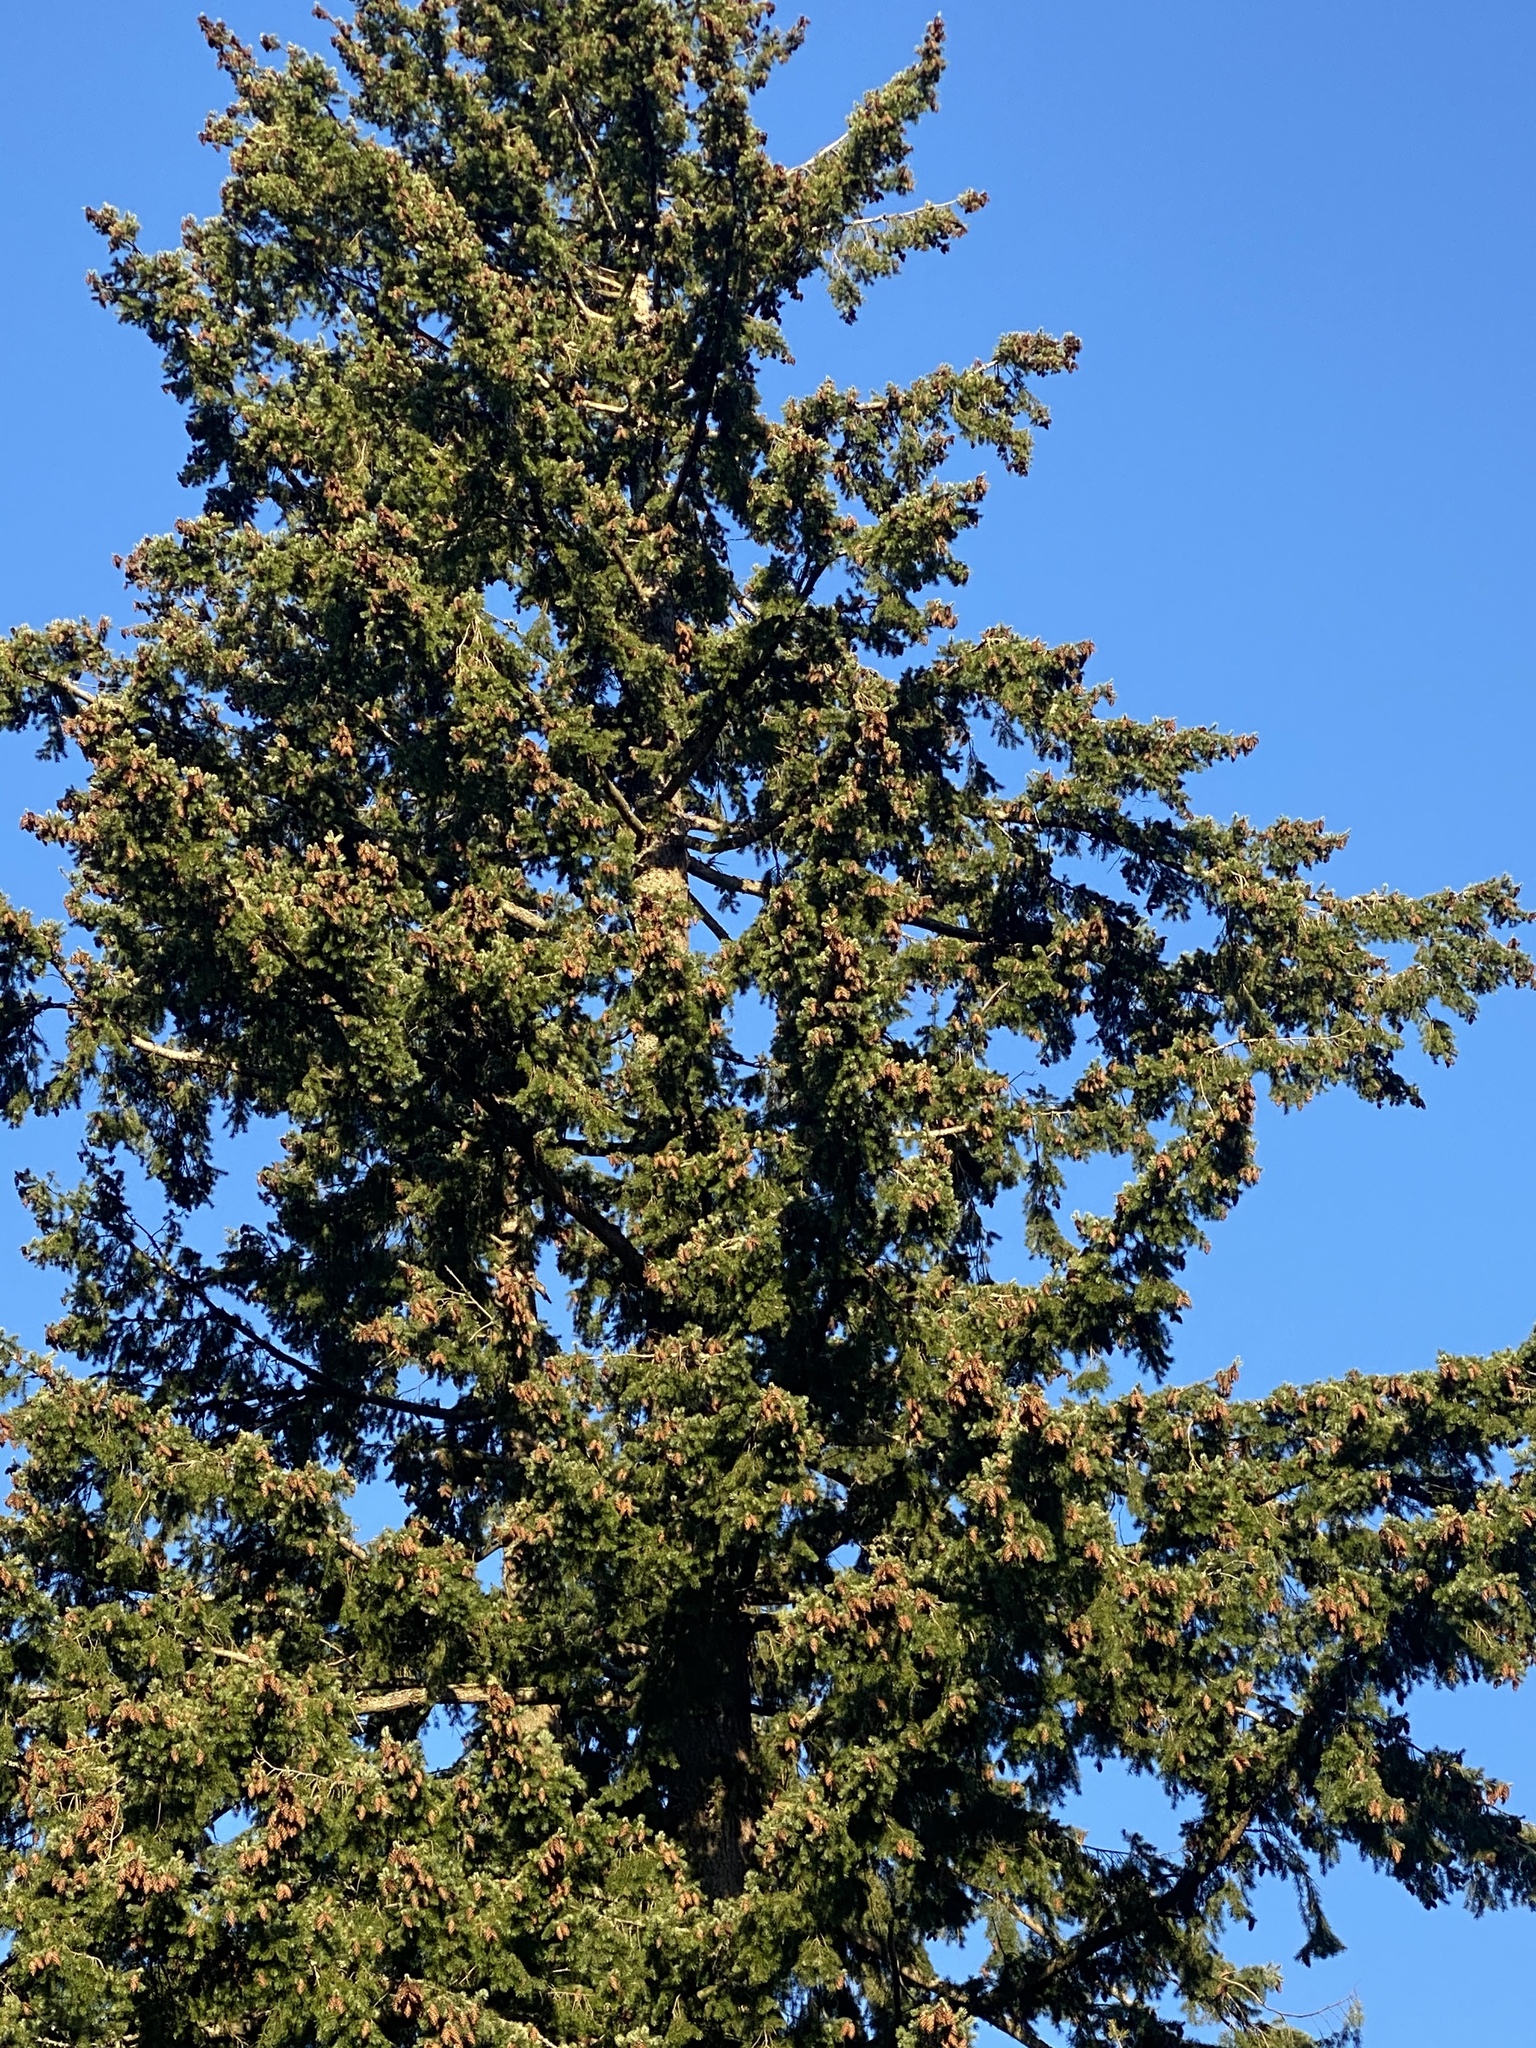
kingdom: Plantae
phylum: Tracheophyta
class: Pinopsida
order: Pinales
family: Pinaceae
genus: Pseudotsuga
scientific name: Pseudotsuga menziesii
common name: Douglas fir
